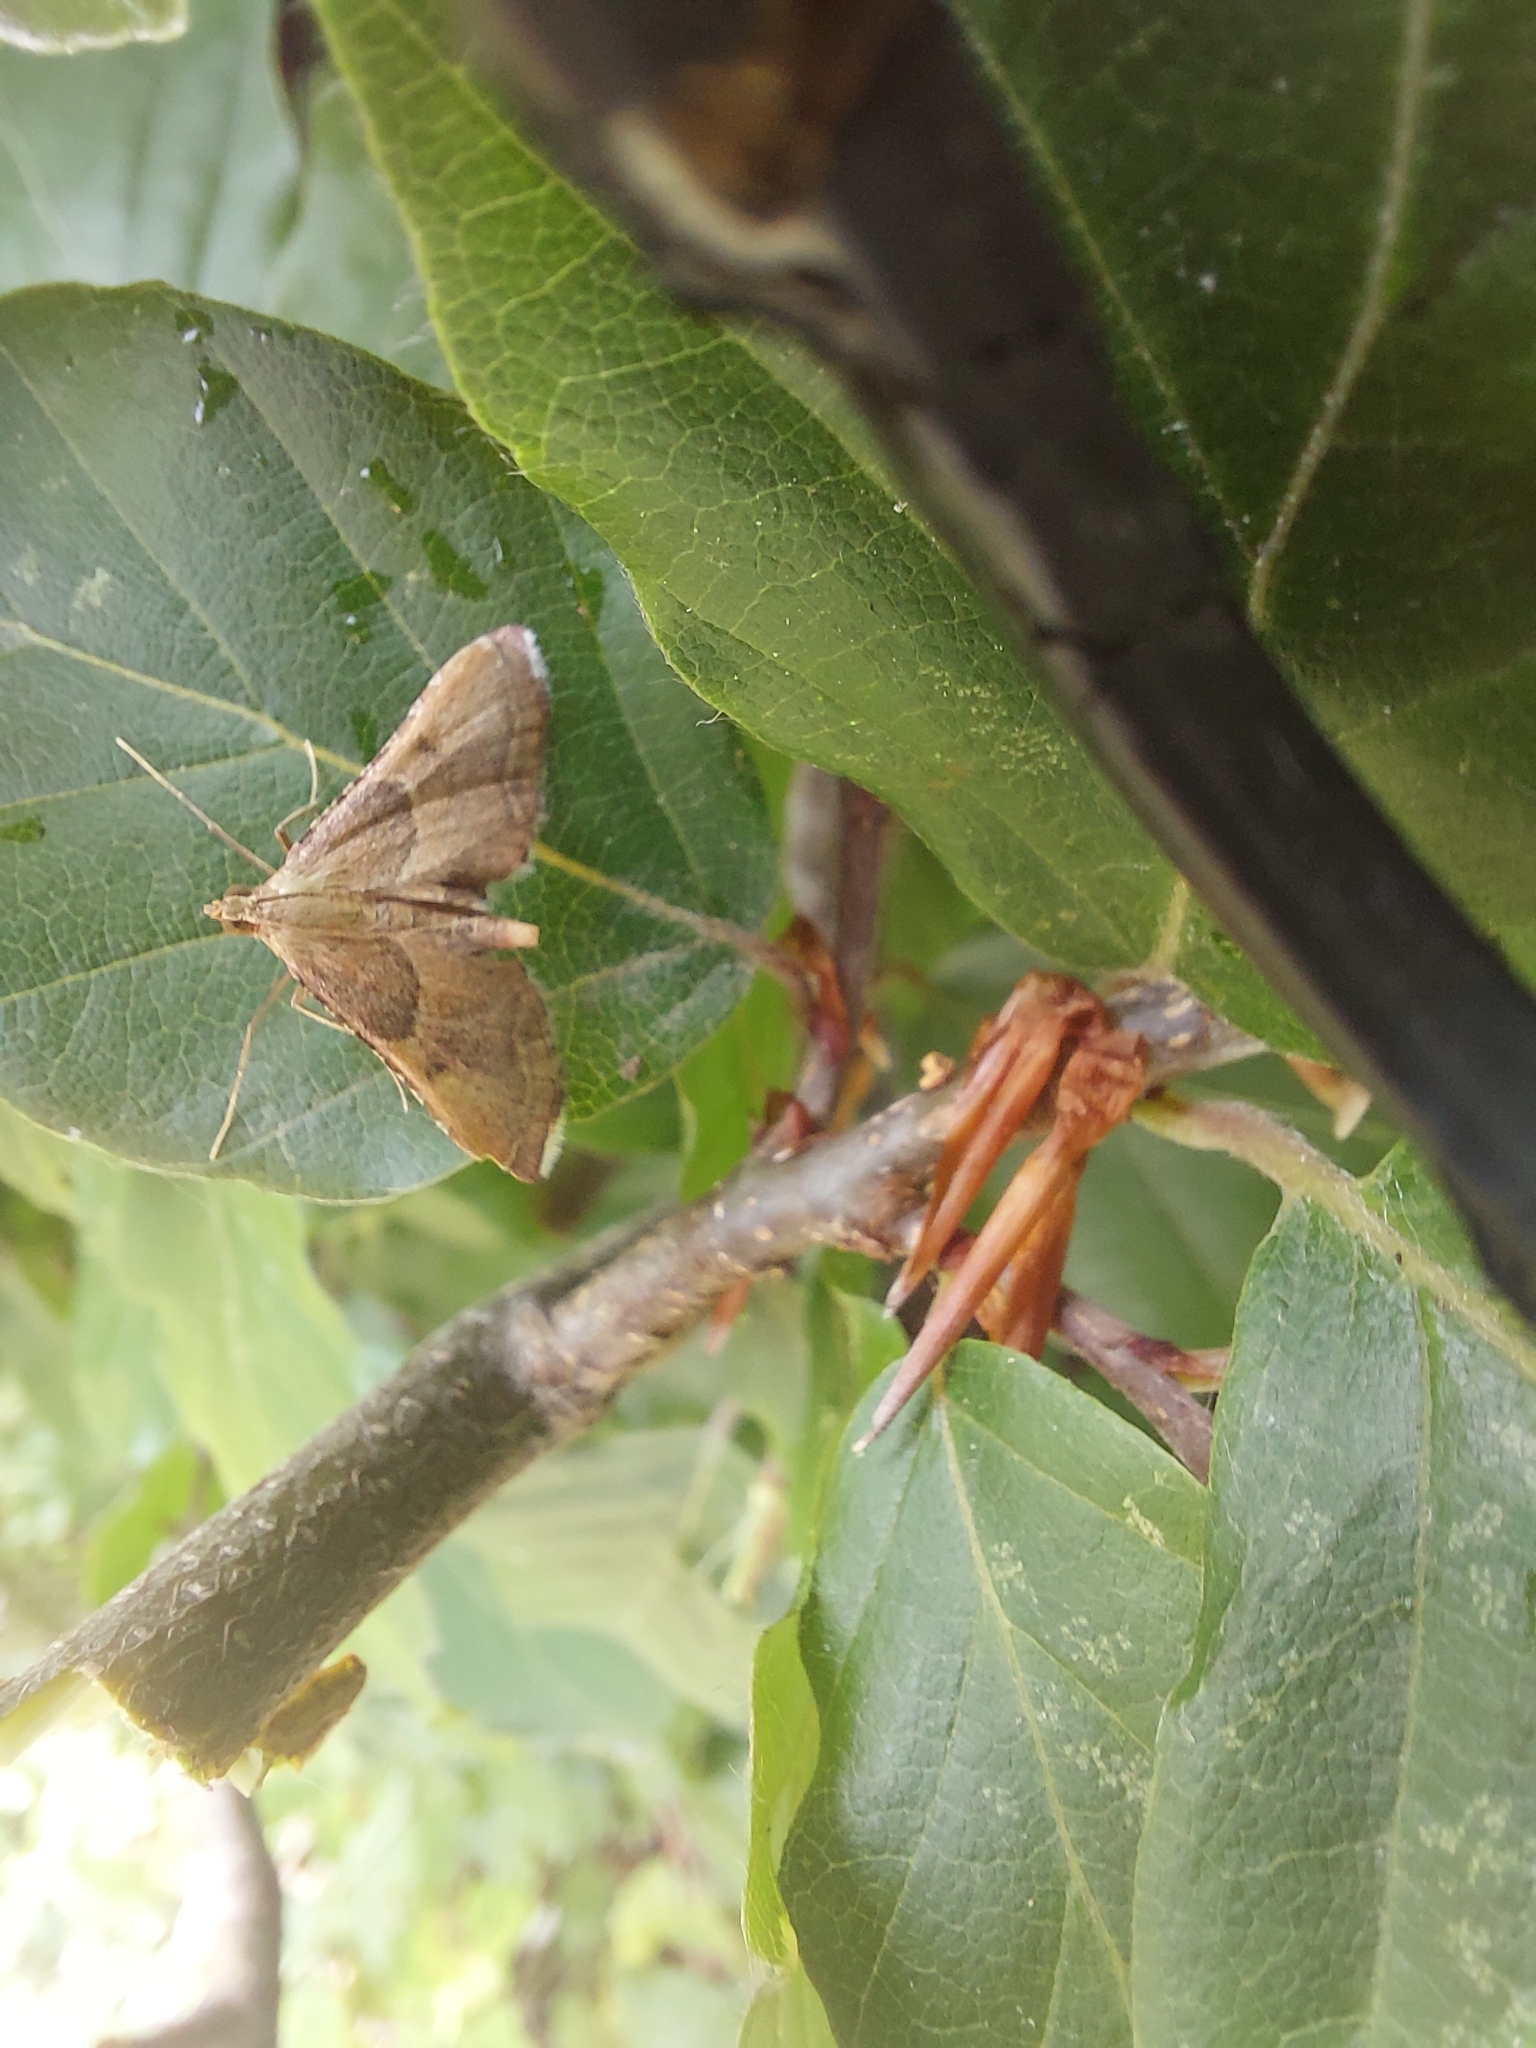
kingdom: Animalia
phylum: Arthropoda
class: Insecta
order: Lepidoptera
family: Pyralidae
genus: Endotricha
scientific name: Endotricha flammealis
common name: Rosy tabby
